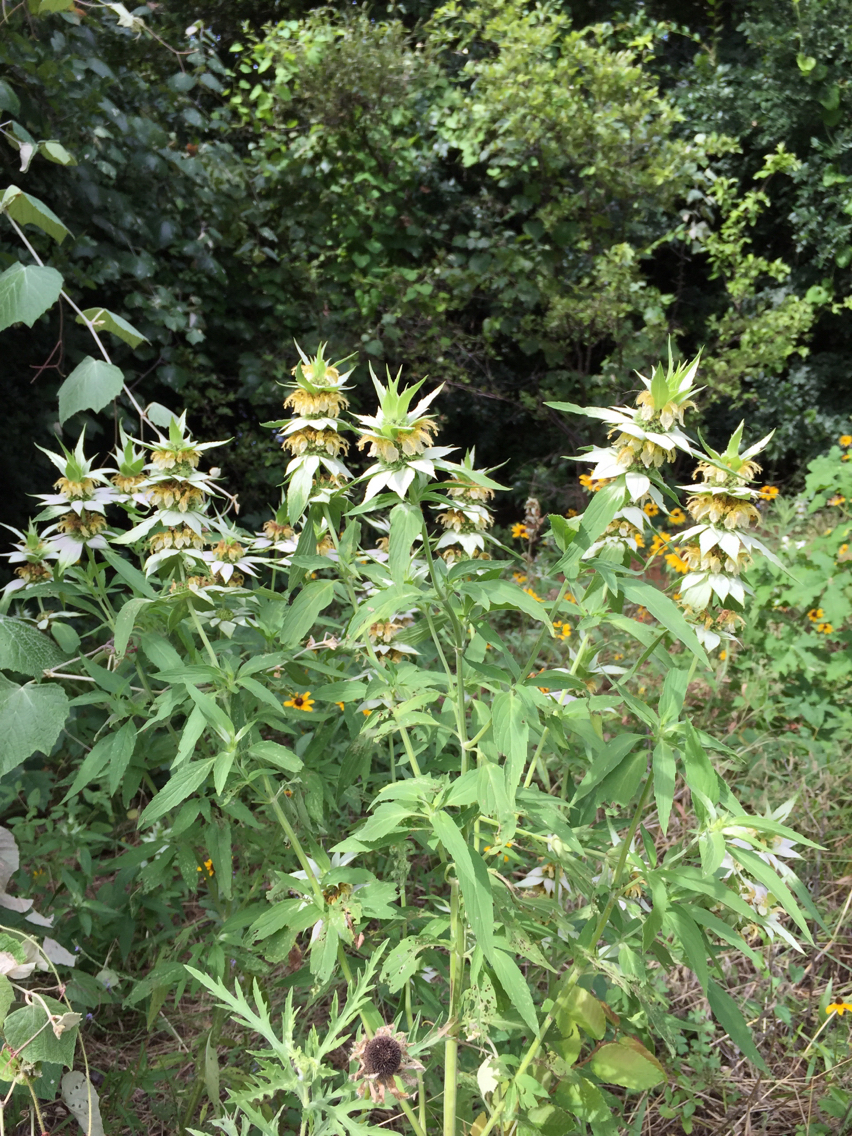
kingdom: Plantae
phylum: Tracheophyta
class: Magnoliopsida
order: Lamiales
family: Lamiaceae
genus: Monarda
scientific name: Monarda punctata
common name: Dotted monarda
